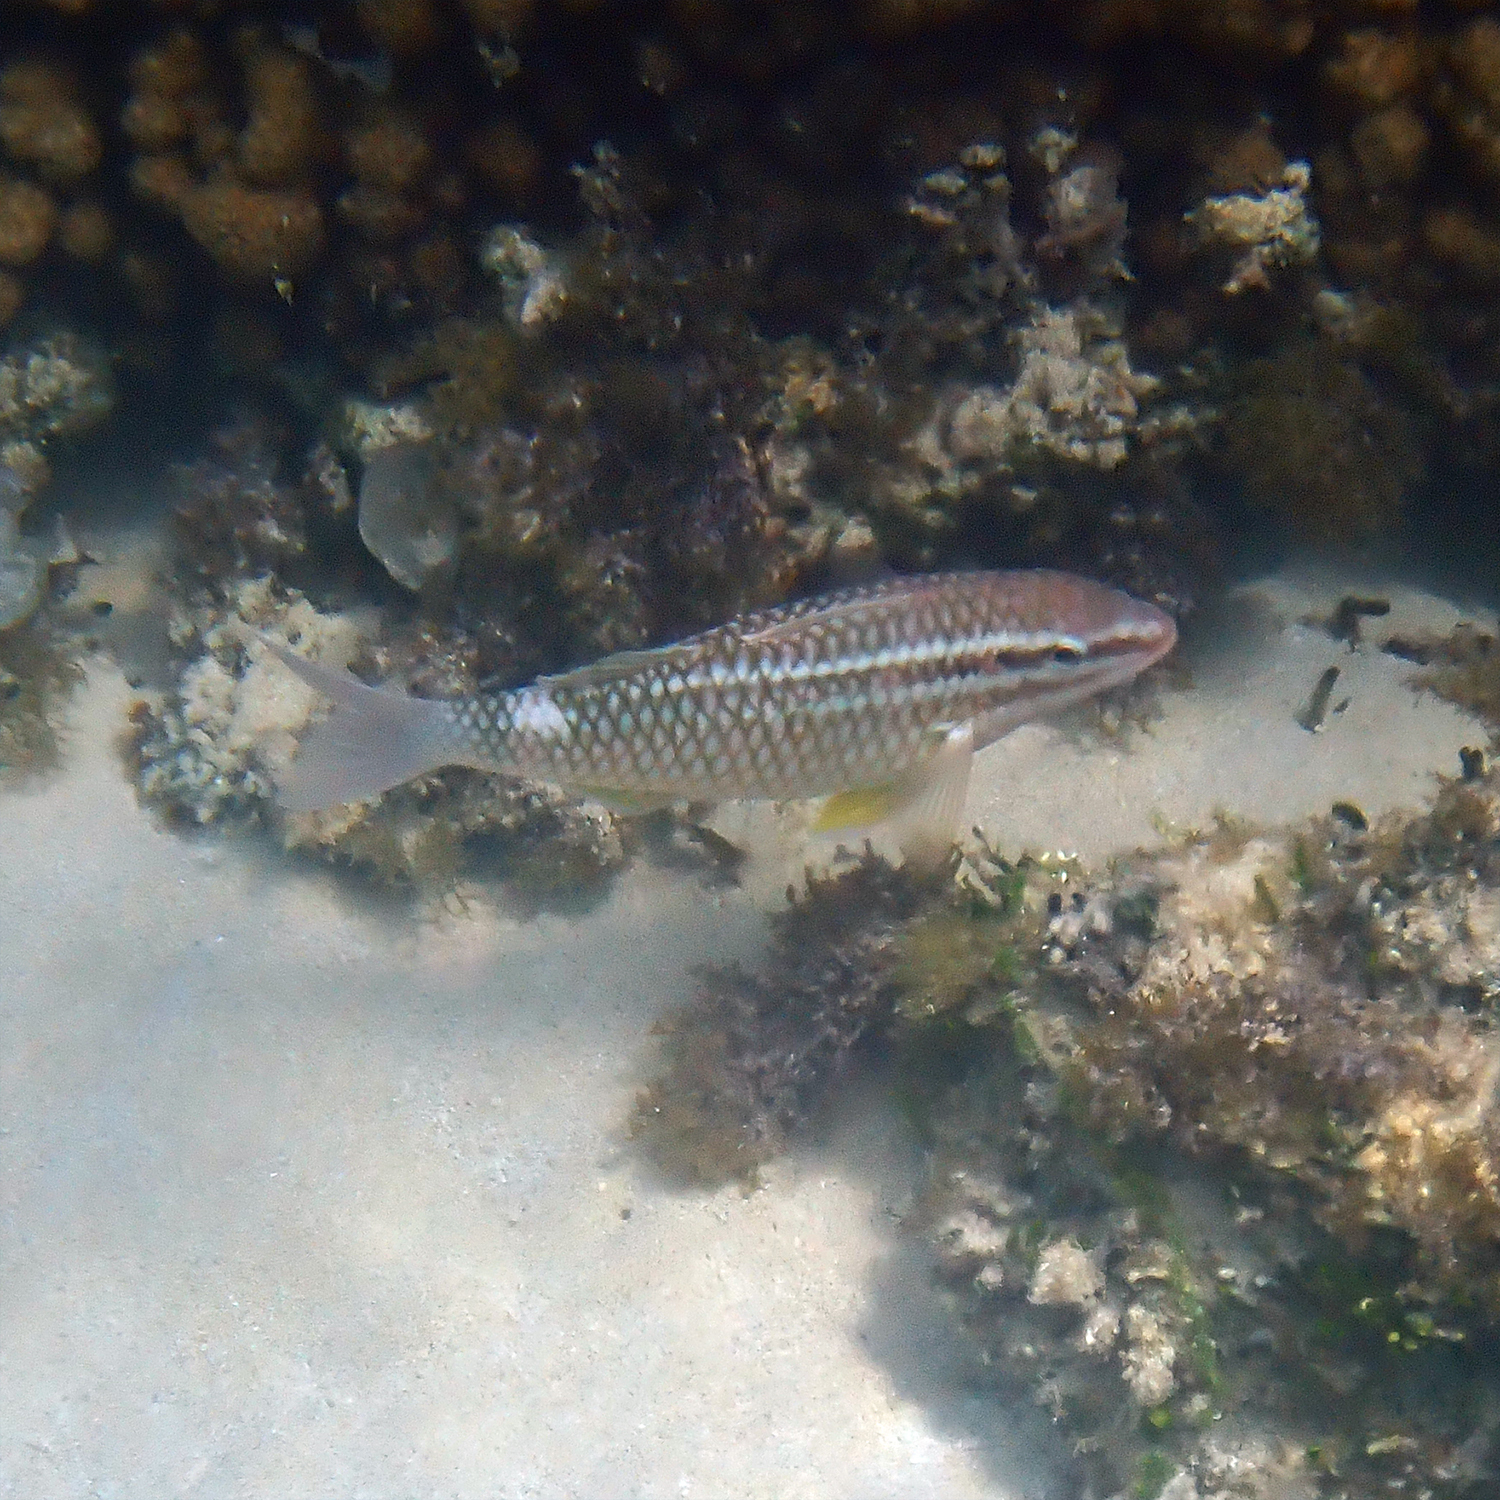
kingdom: Animalia
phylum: Chordata
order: Perciformes
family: Mullidae
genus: Parupeneus
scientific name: Parupeneus ciliatus
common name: White-lined goatfish
